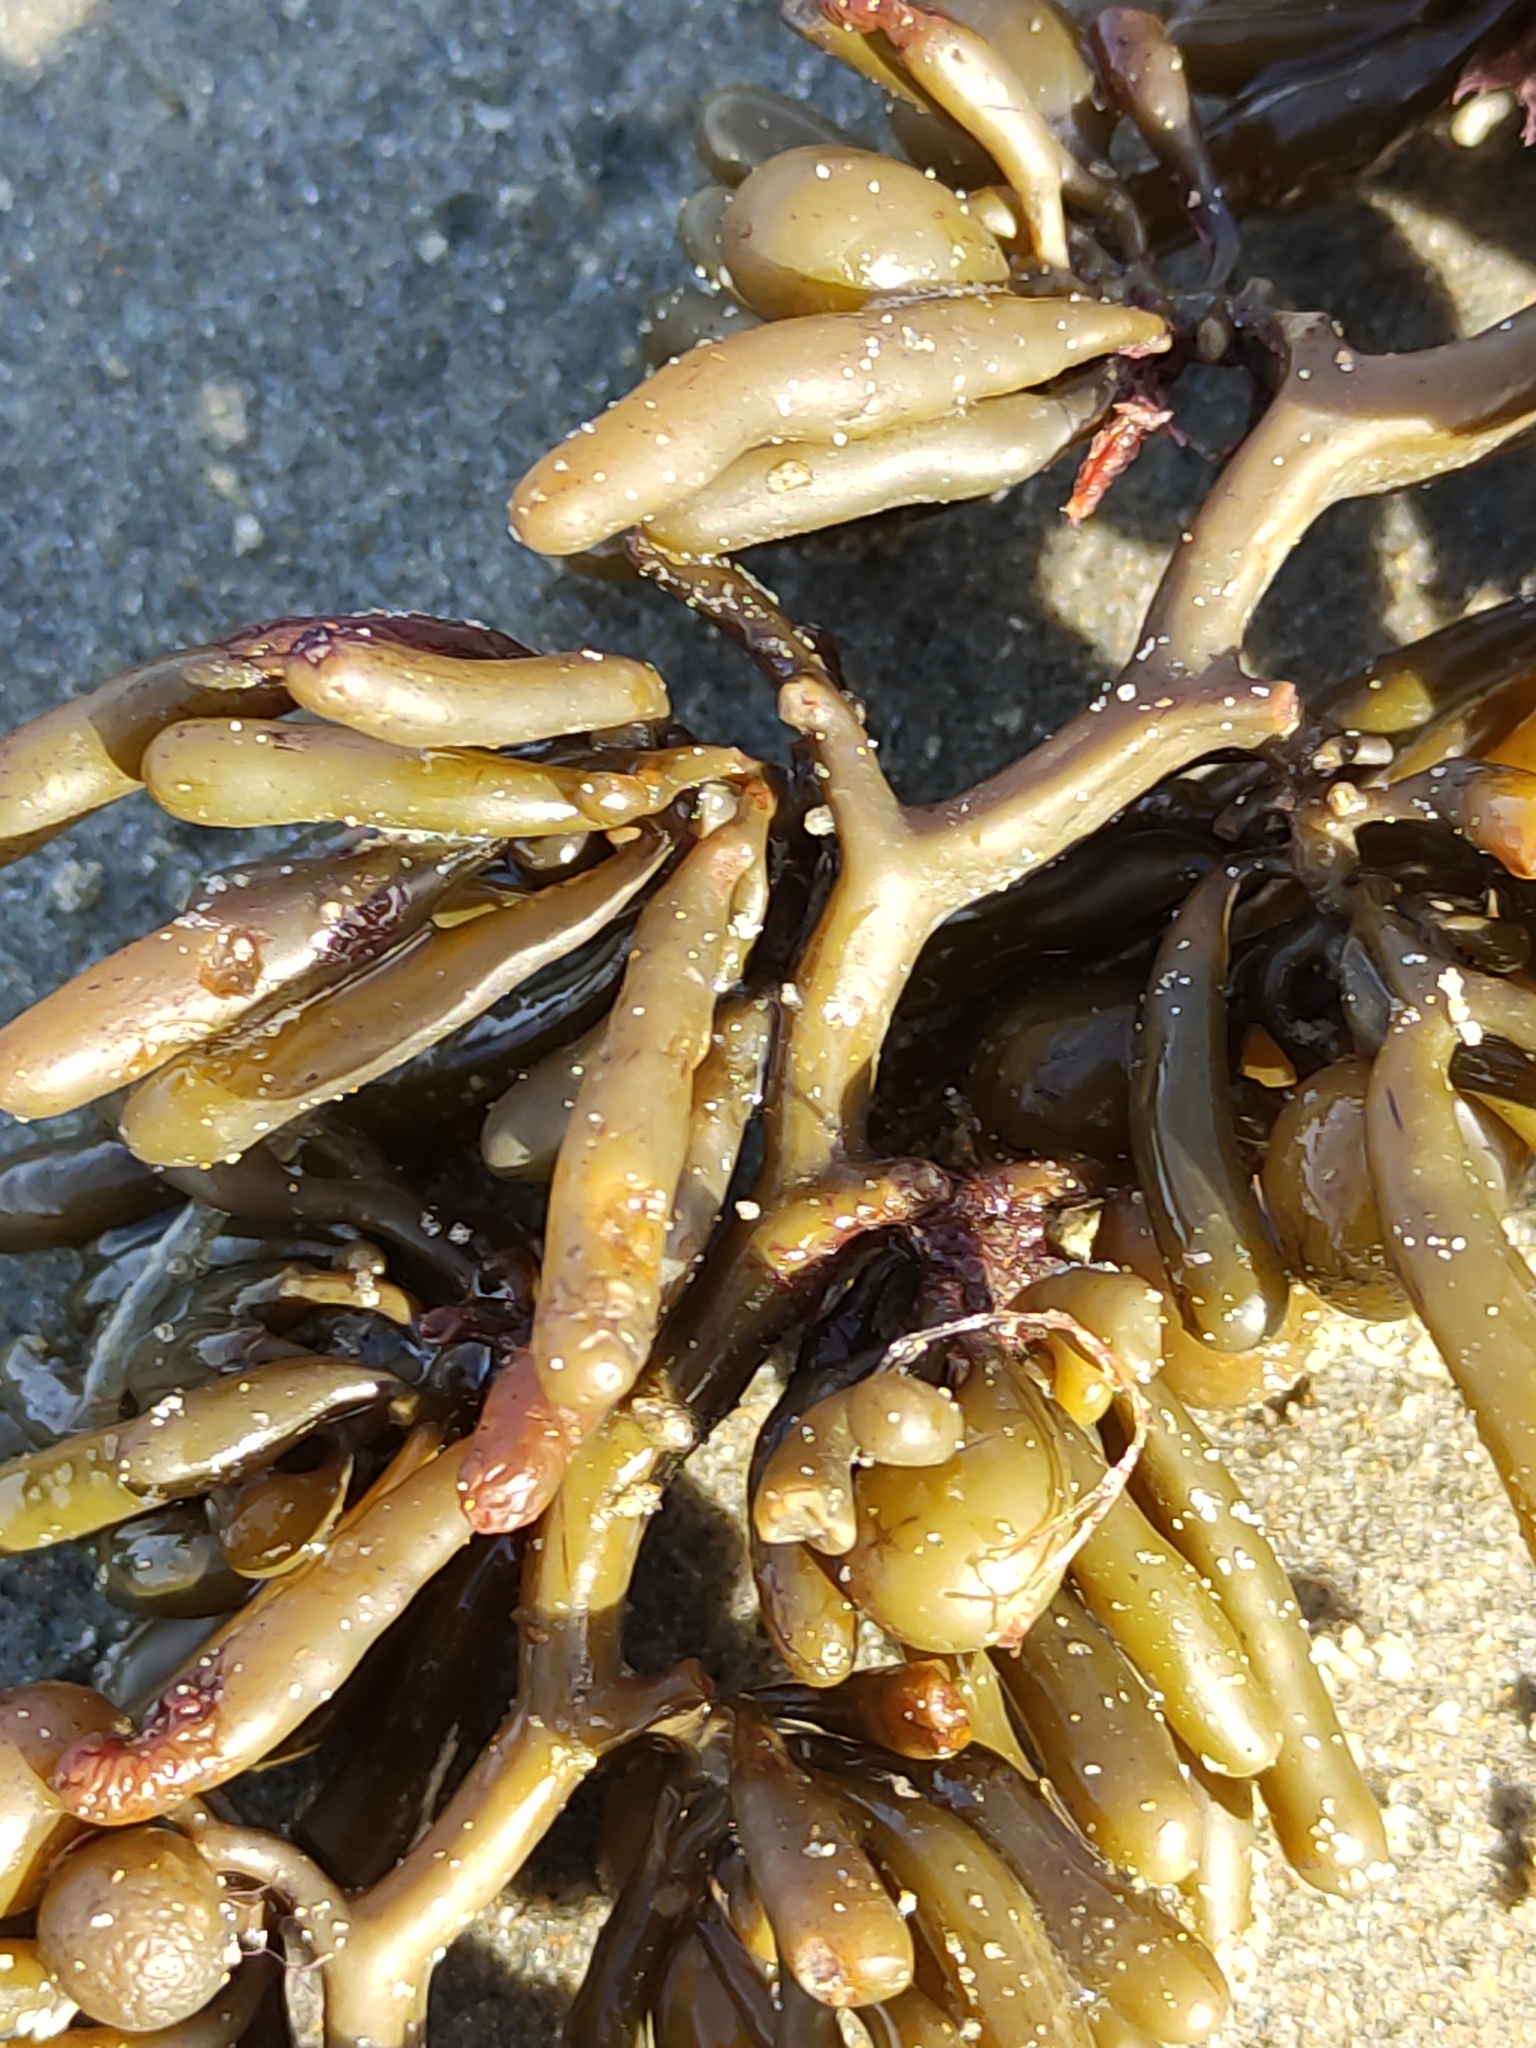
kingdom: Chromista
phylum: Ochrophyta
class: Phaeophyceae
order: Fucales
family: Sargassaceae
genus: Cystophora
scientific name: Cystophora torulosa
